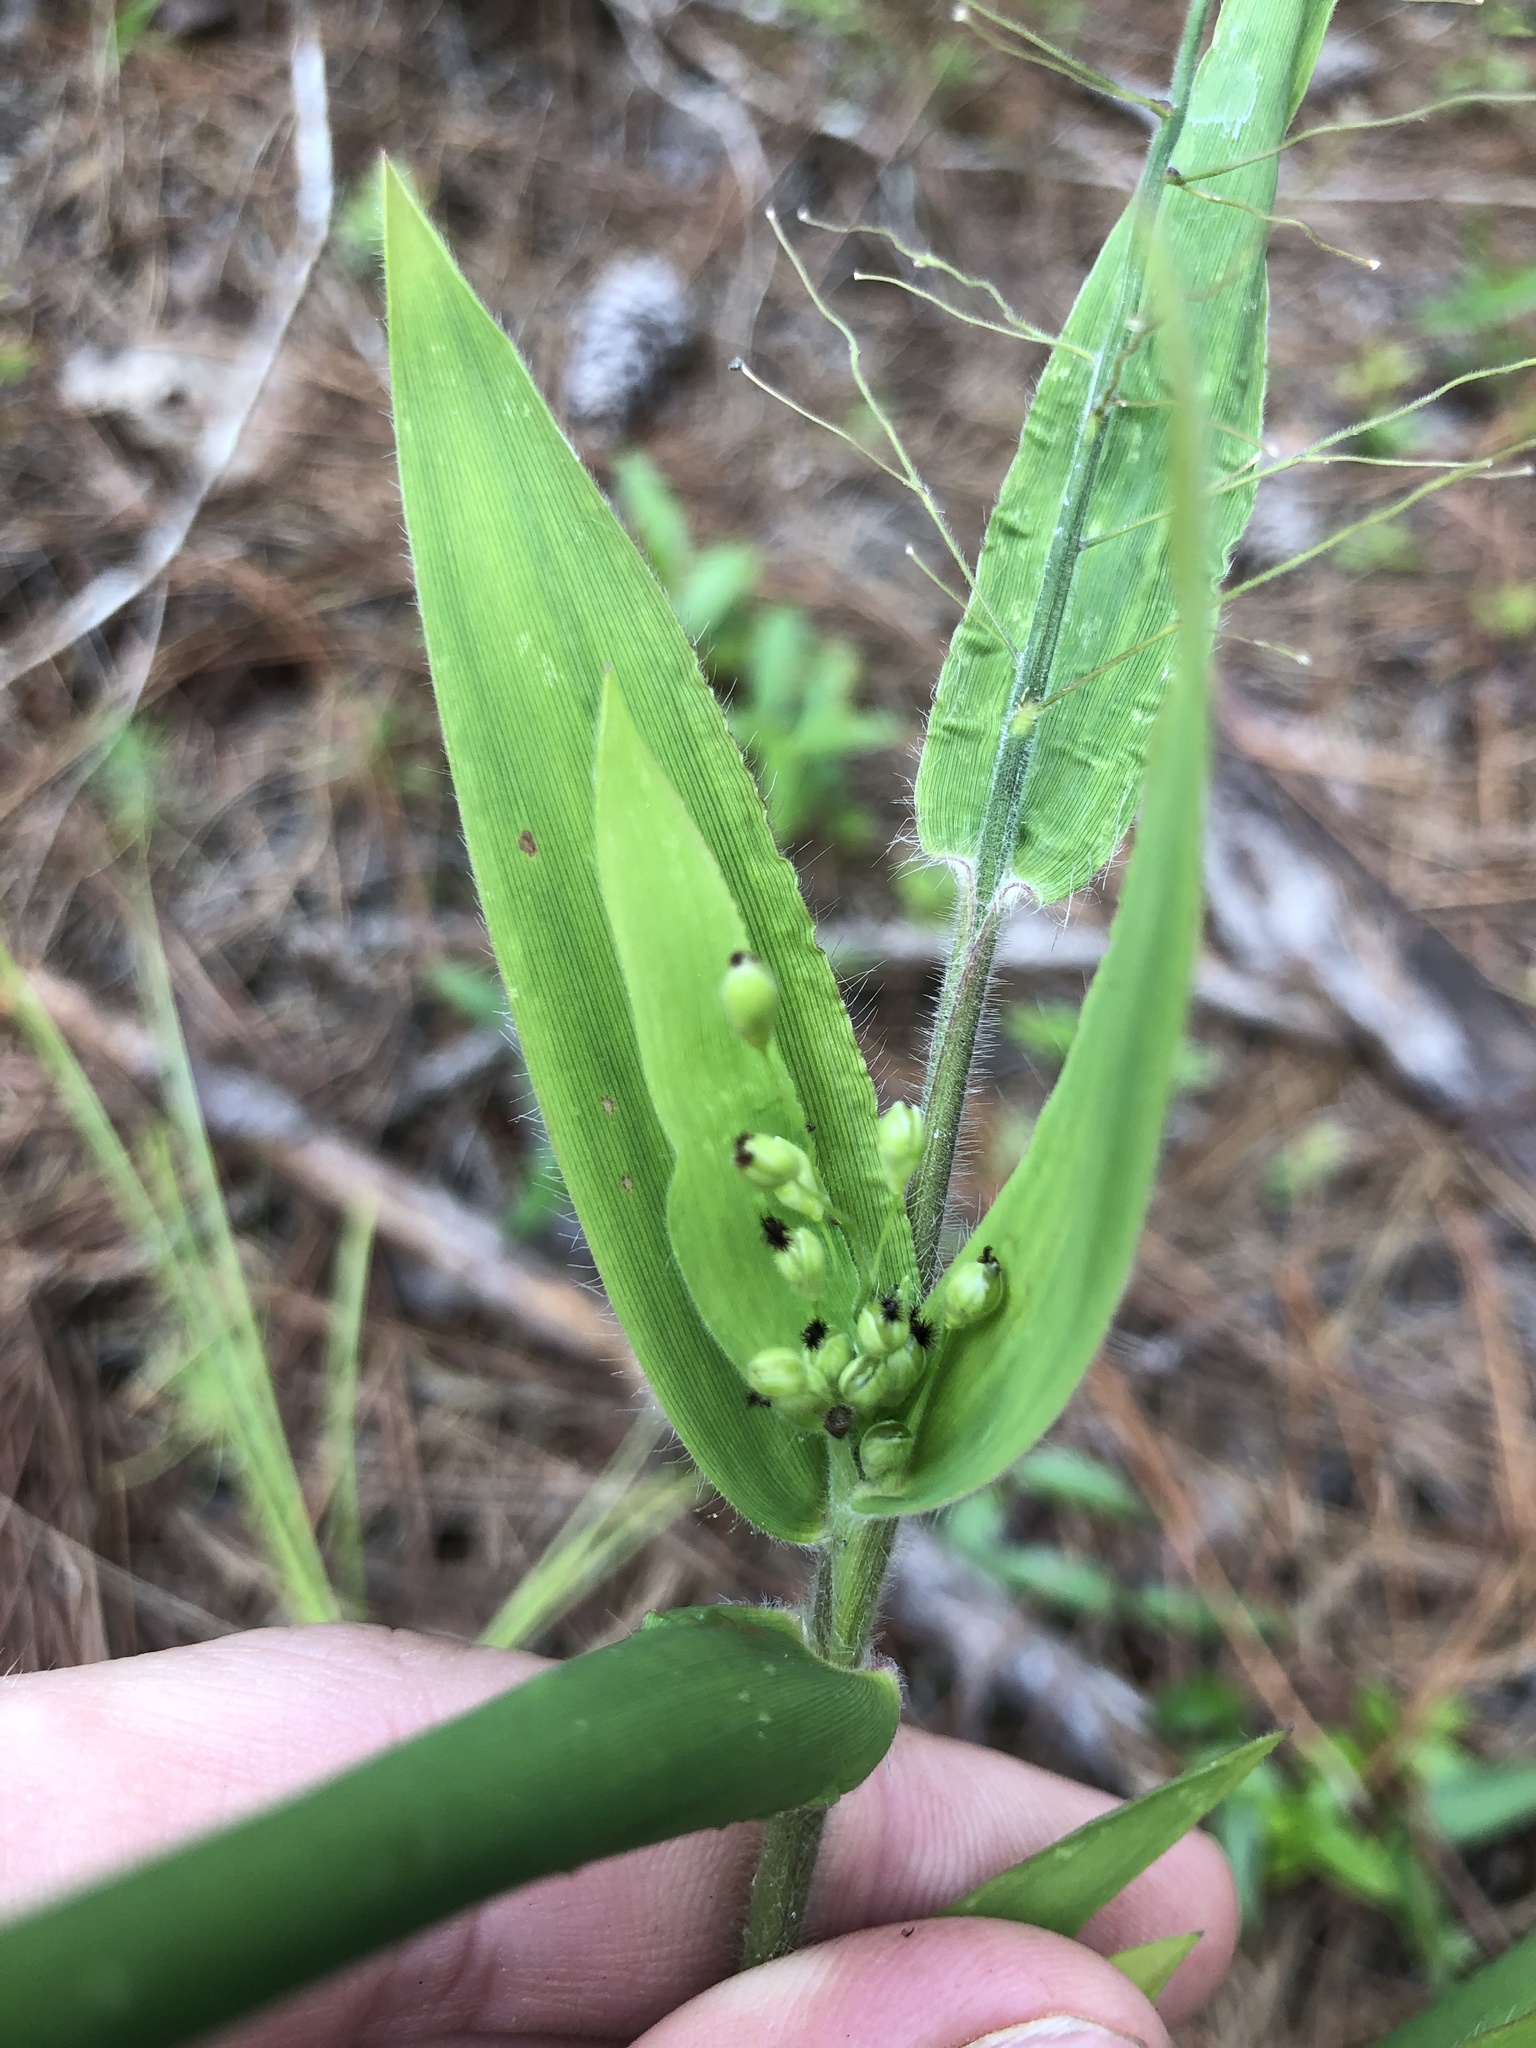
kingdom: Plantae
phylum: Tracheophyta
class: Liliopsida
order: Poales
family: Poaceae
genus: Dichanthelium
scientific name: Dichanthelium ravenelii
